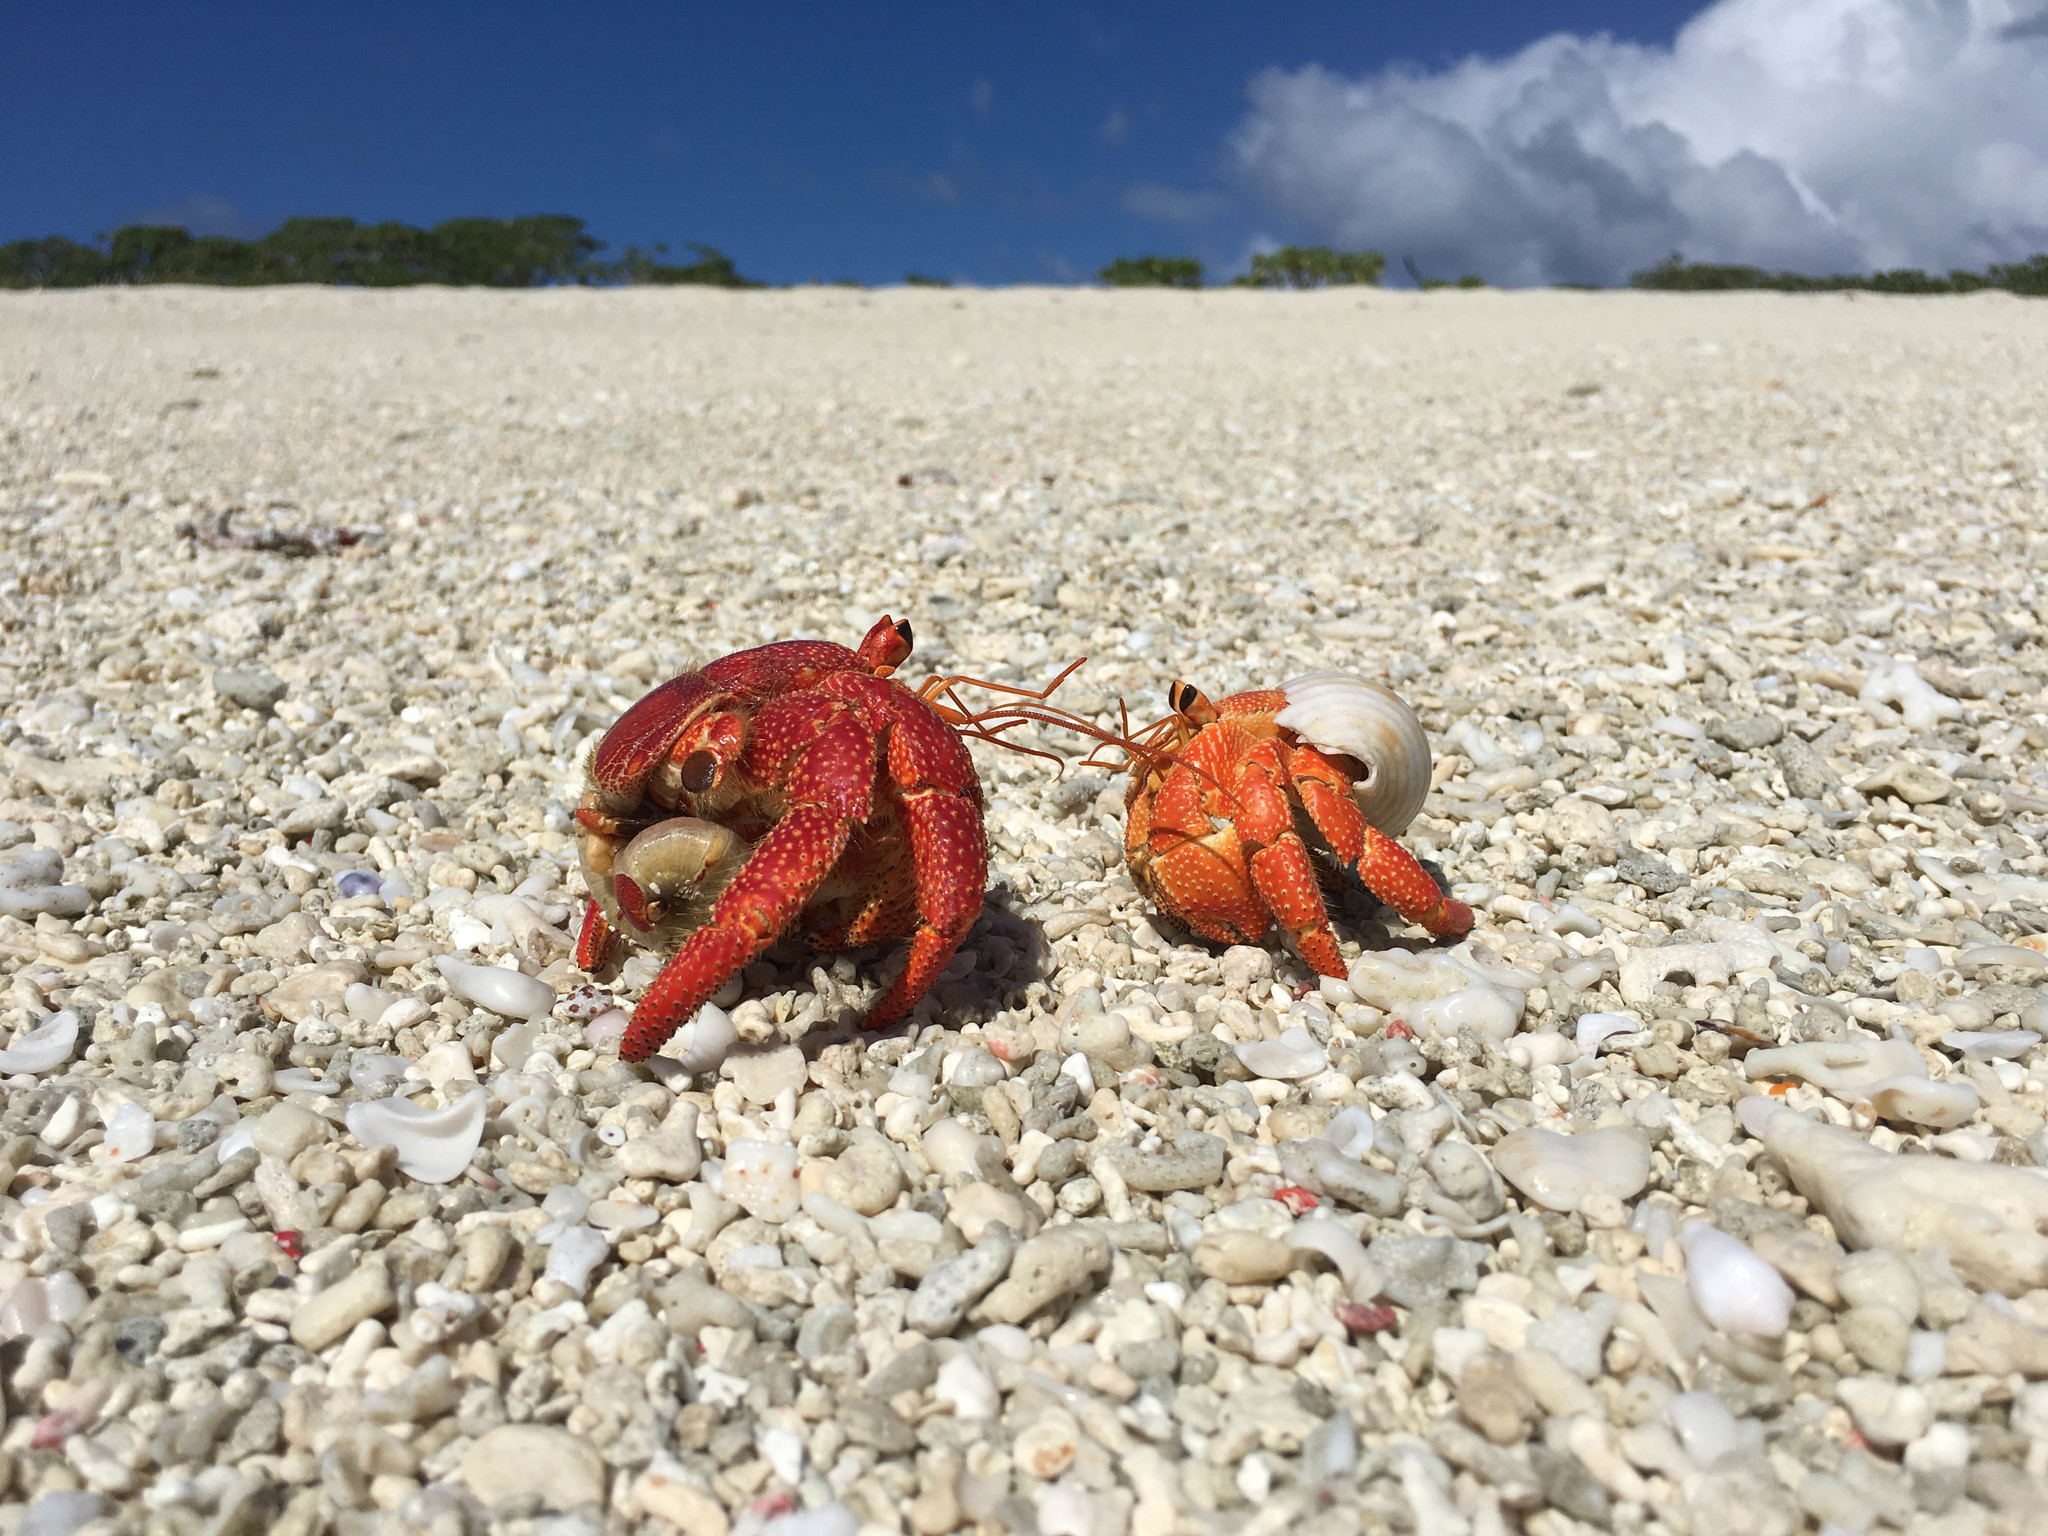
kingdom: Animalia
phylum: Arthropoda
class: Malacostraca
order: Decapoda
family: Coenobitidae
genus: Coenobita
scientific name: Coenobita perlatus
